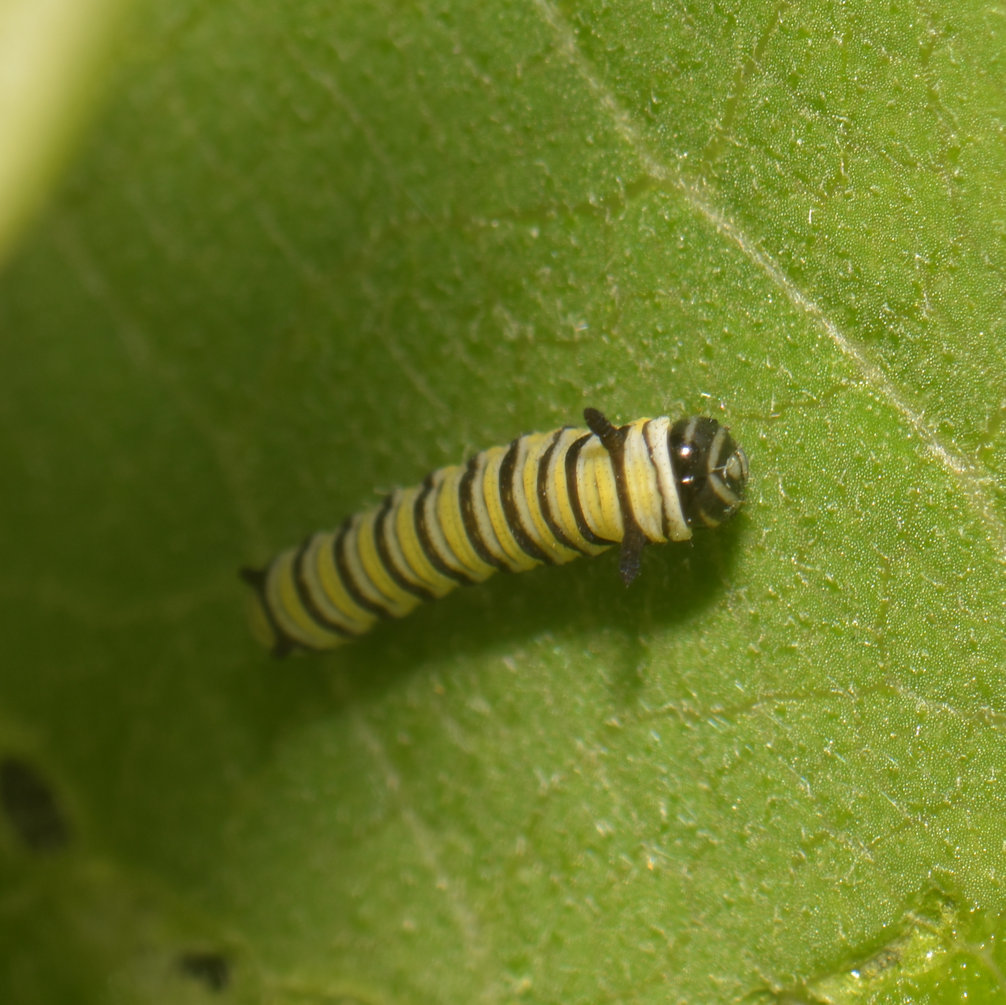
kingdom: Animalia
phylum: Arthropoda
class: Insecta
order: Lepidoptera
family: Nymphalidae
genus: Danaus
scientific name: Danaus plexippus
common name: Monarch
